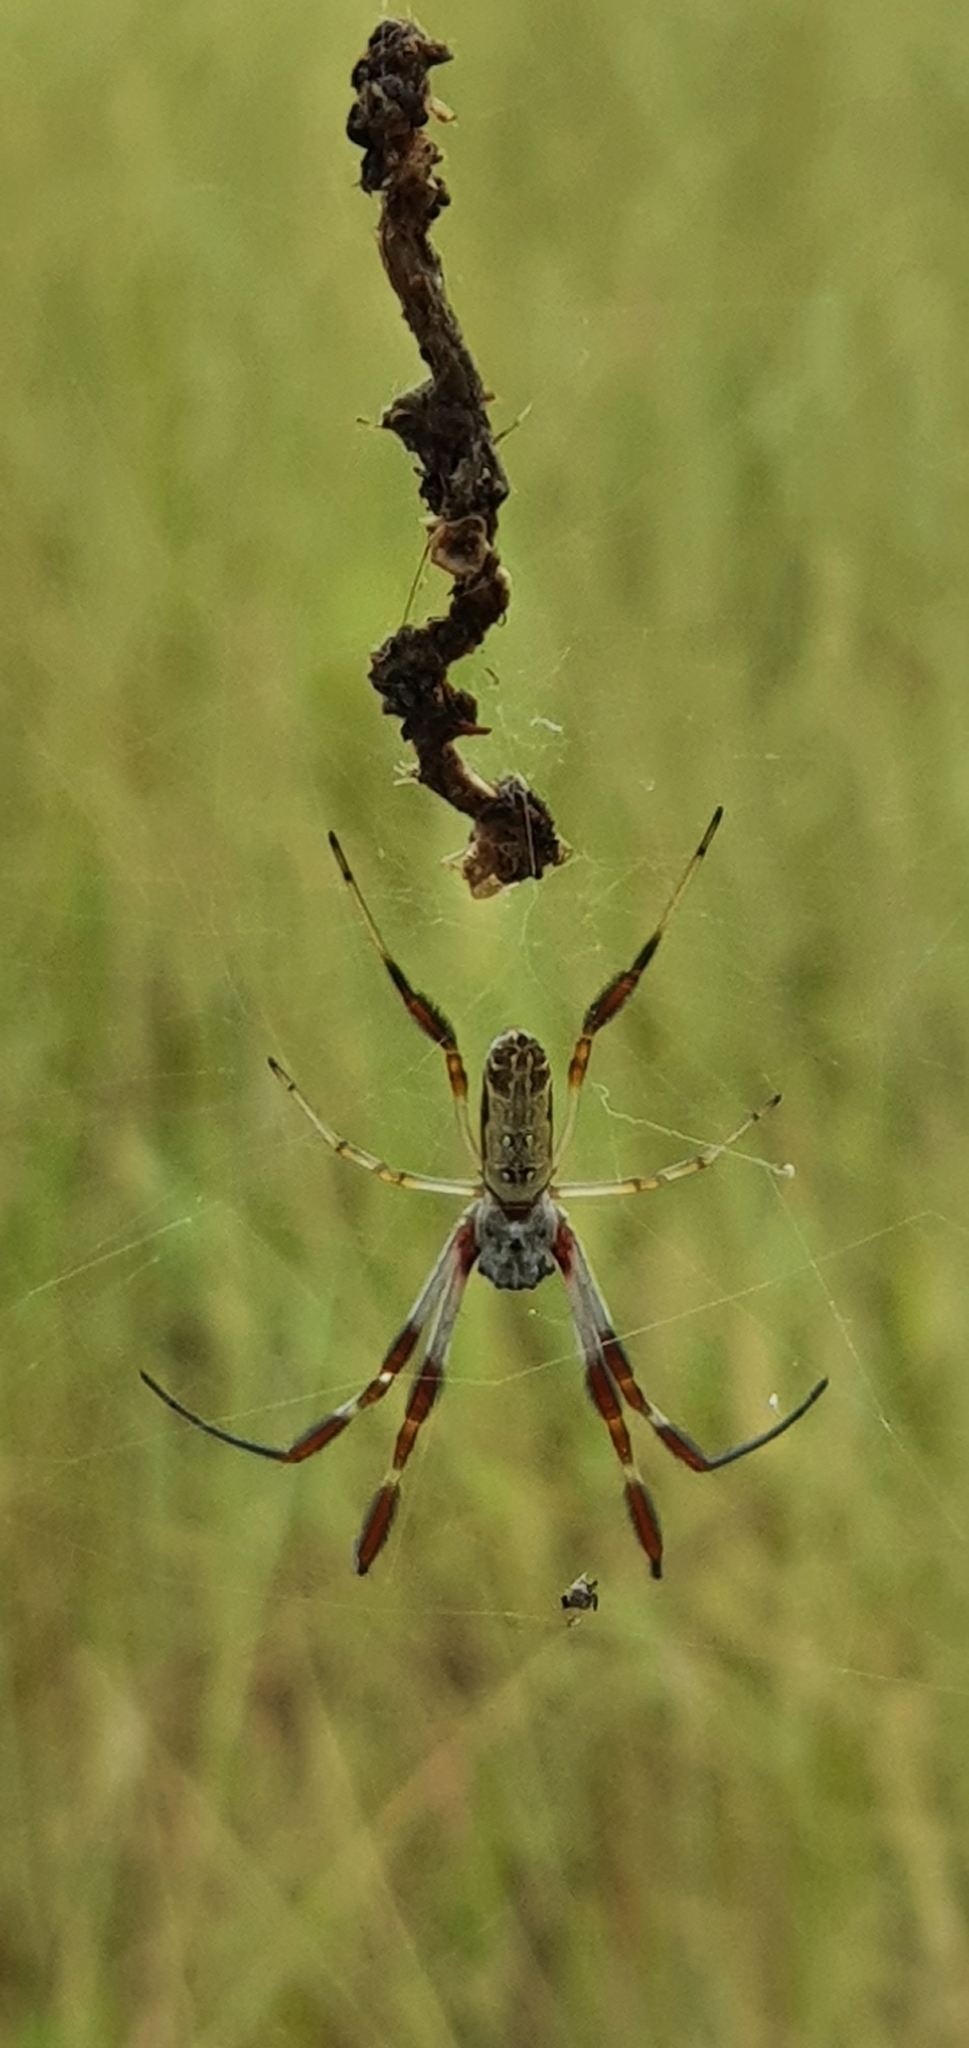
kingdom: Animalia
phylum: Arthropoda
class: Arachnida
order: Araneae
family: Araneidae
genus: Trichonephila
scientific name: Trichonephila edulis
